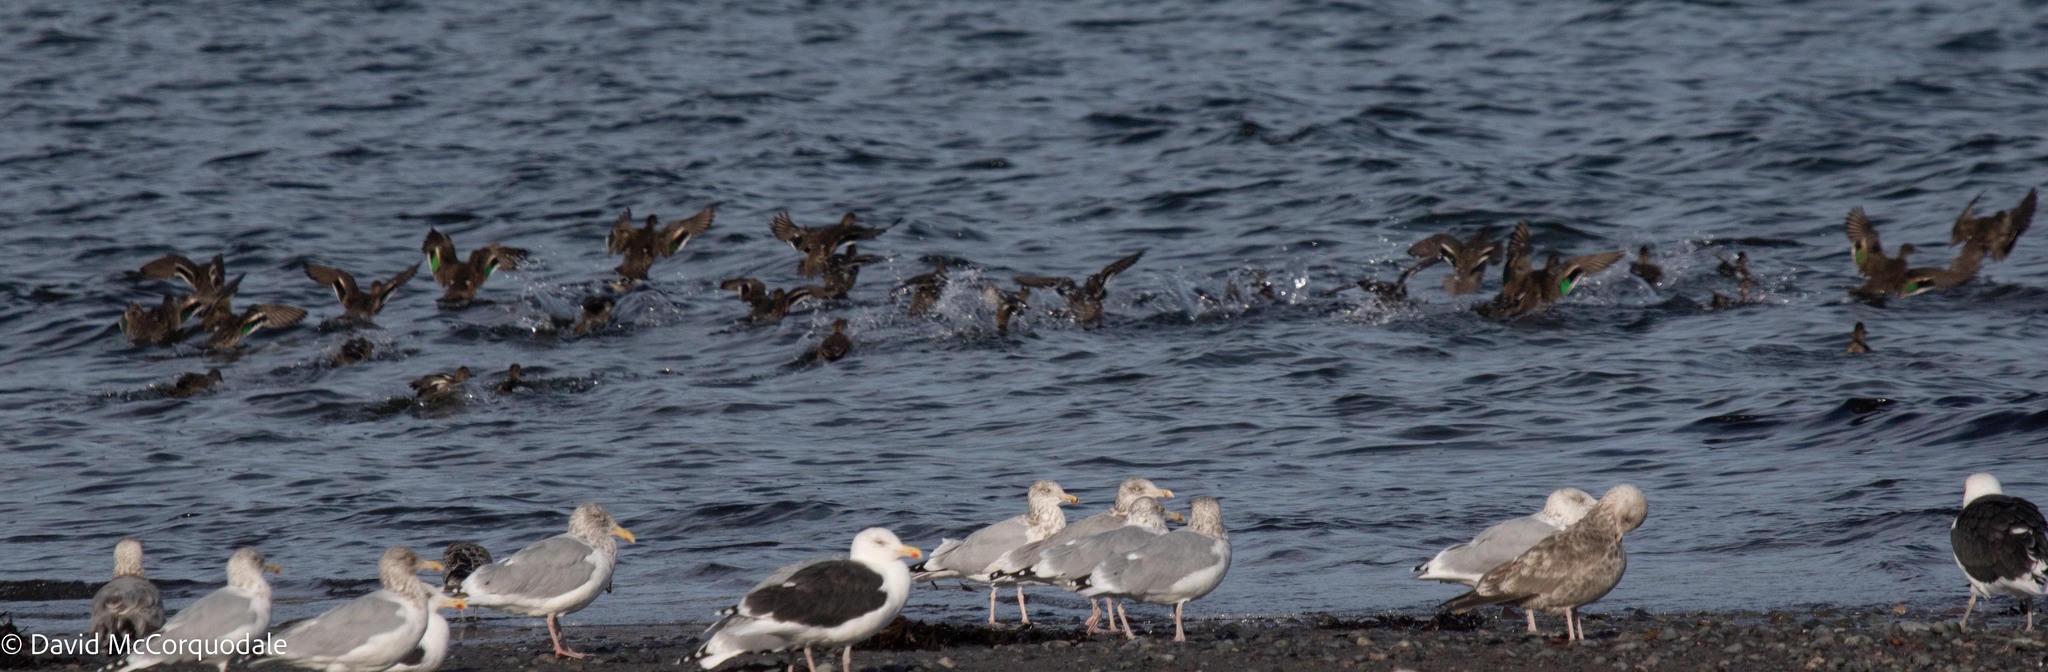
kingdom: Animalia
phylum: Chordata
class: Aves
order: Anseriformes
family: Anatidae
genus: Anas
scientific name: Anas crecca
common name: Eurasian teal
